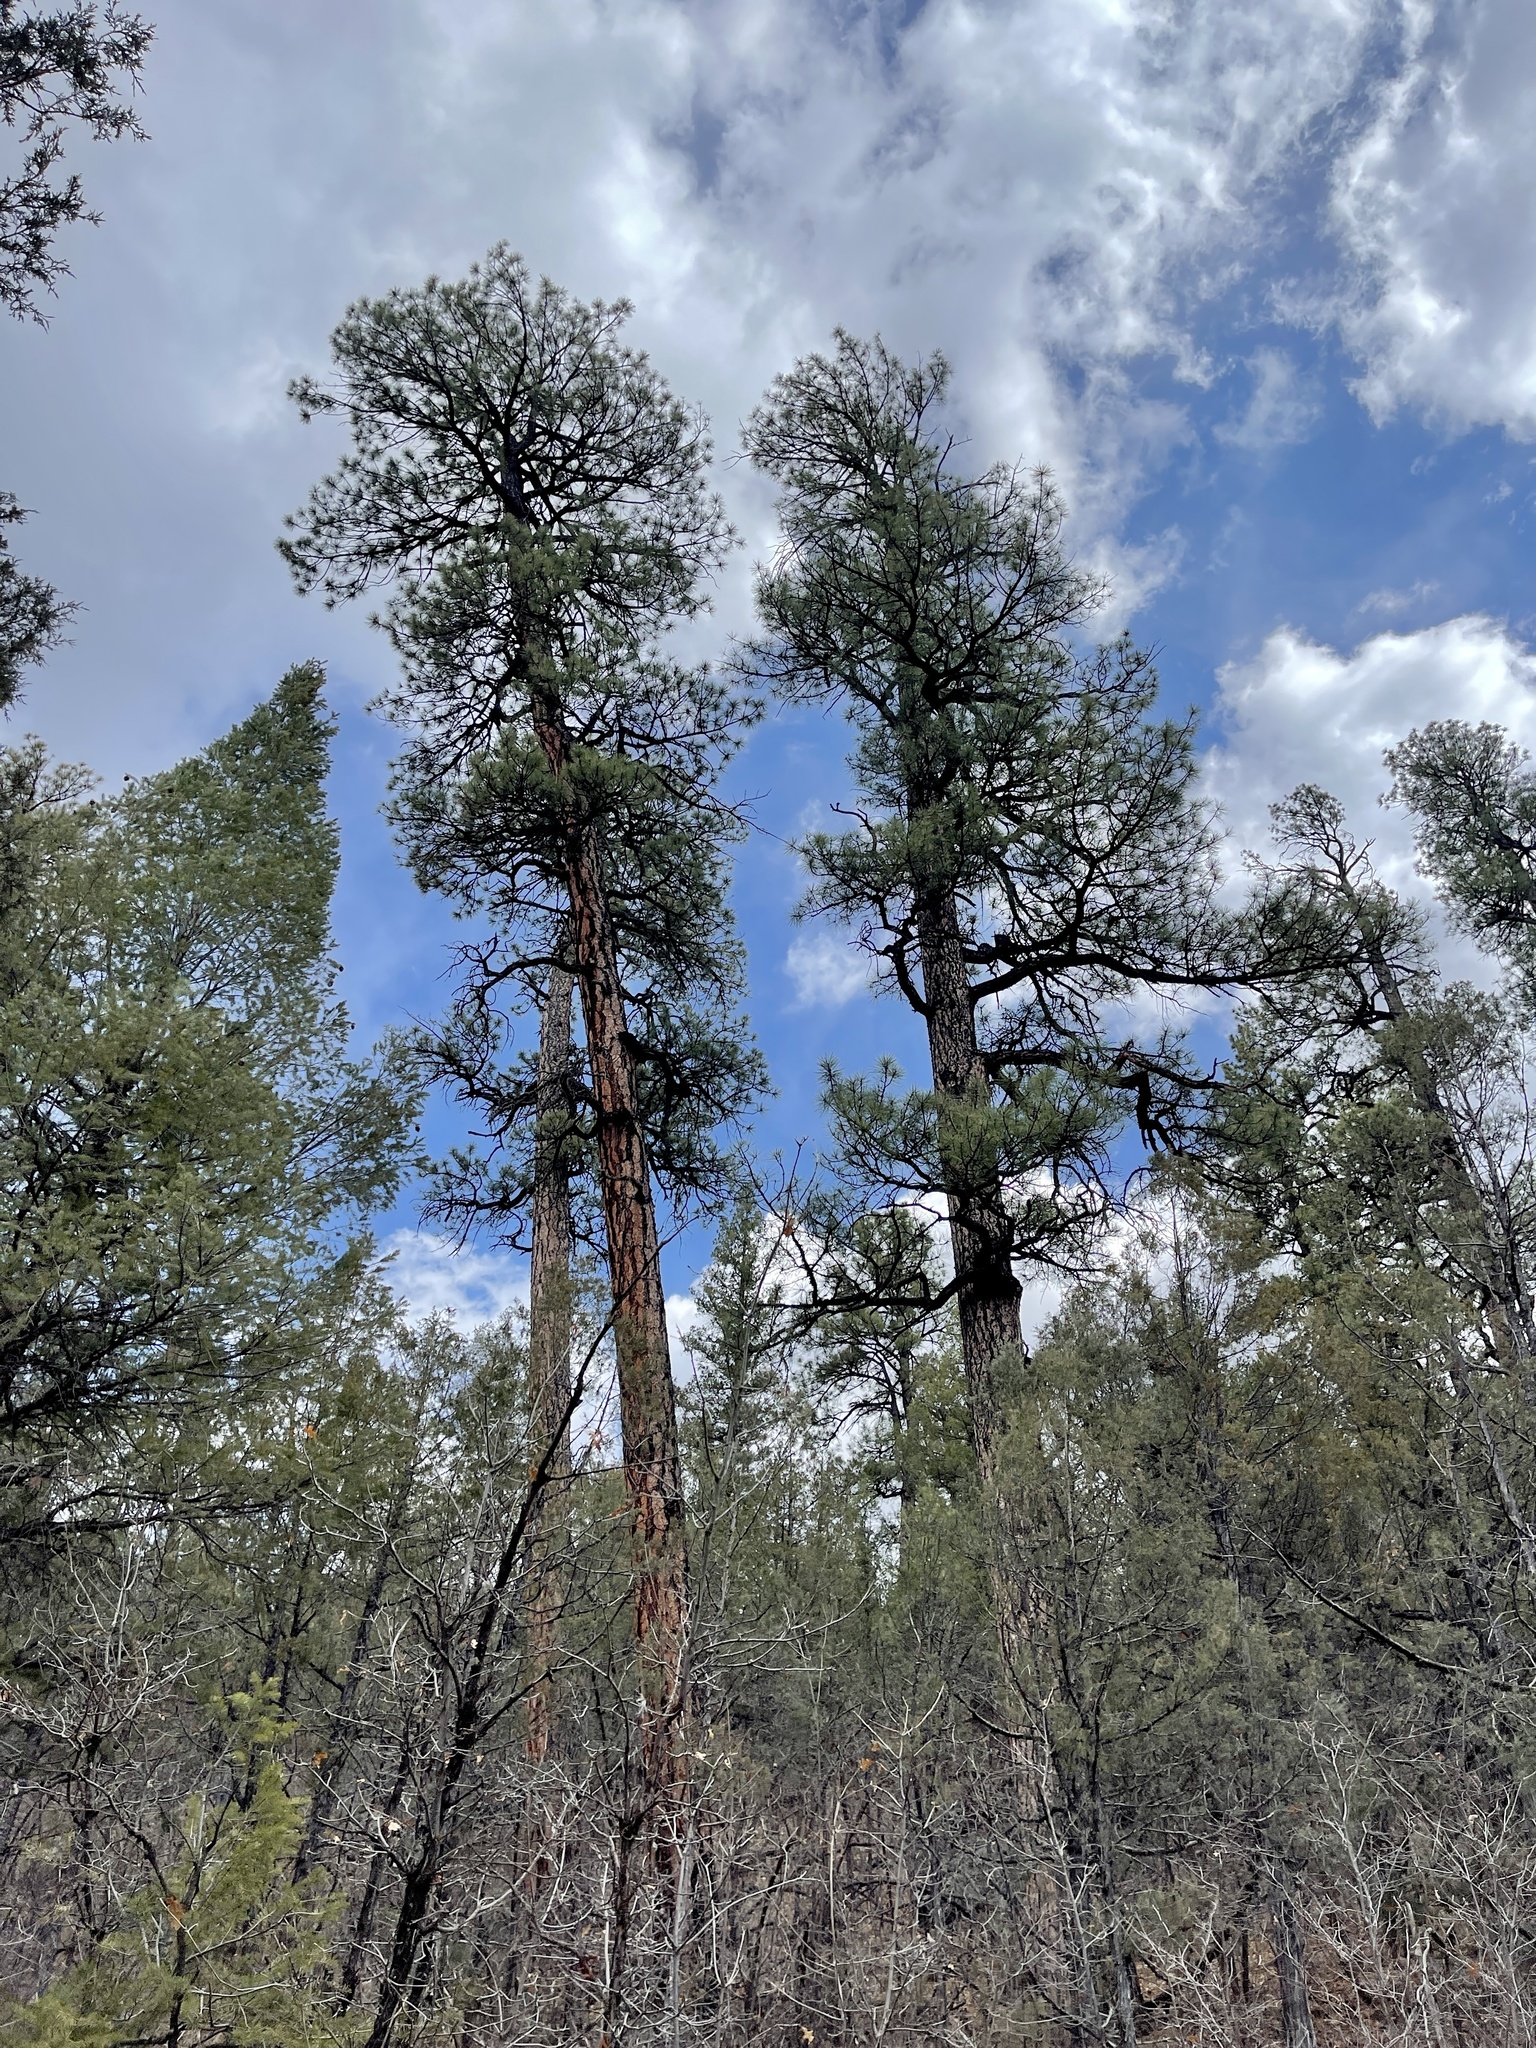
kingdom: Plantae
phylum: Tracheophyta
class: Pinopsida
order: Pinales
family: Pinaceae
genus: Pinus
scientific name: Pinus ponderosa
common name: Western yellow-pine
